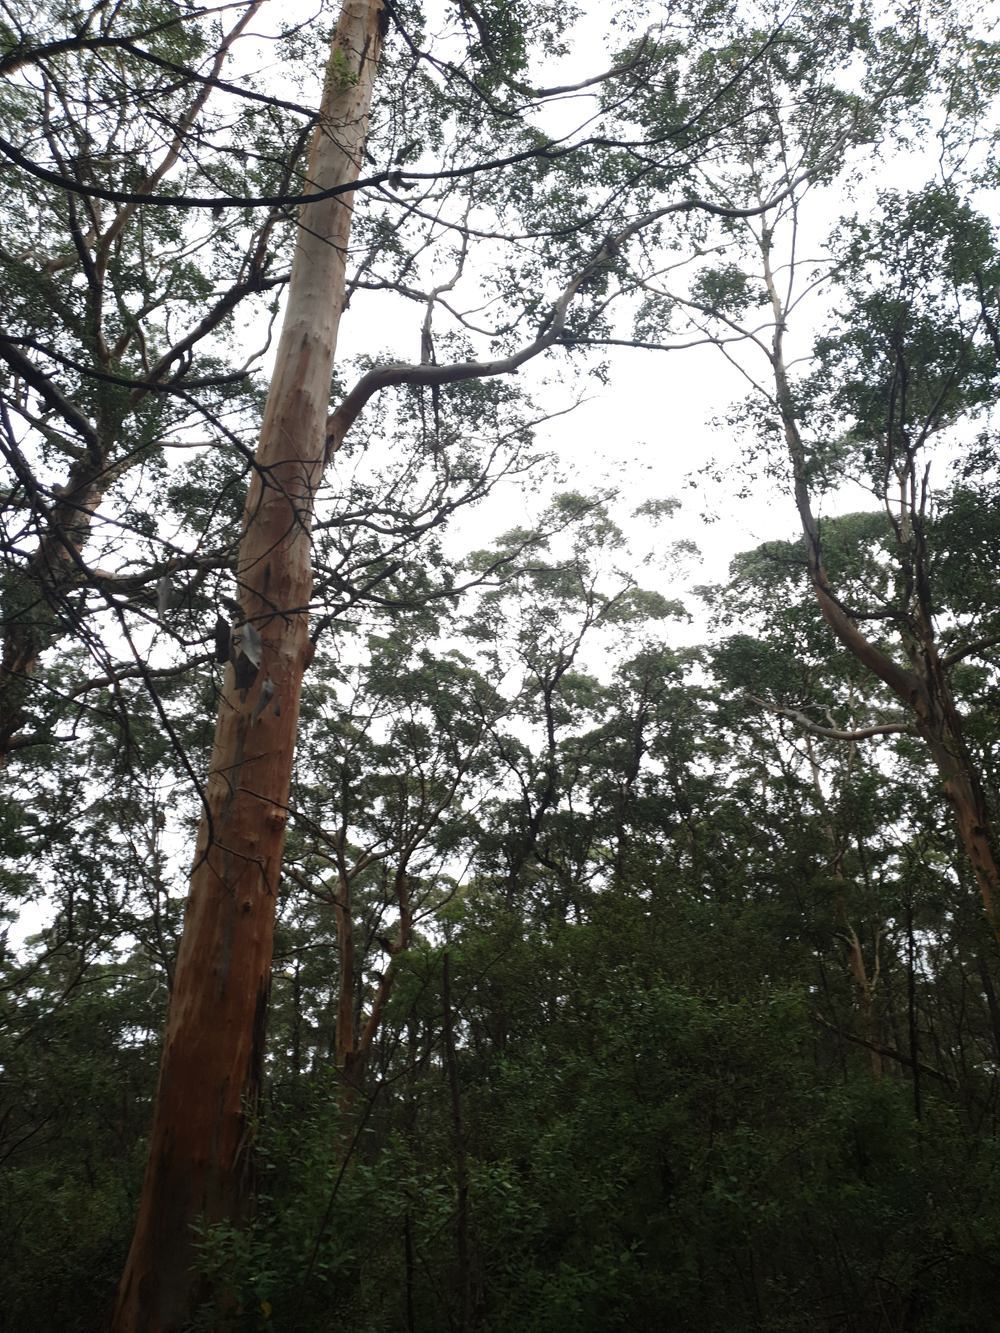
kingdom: Plantae
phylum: Tracheophyta
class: Magnoliopsida
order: Myrtales
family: Myrtaceae
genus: Eucalyptus
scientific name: Eucalyptus diversicolor
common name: Karri
